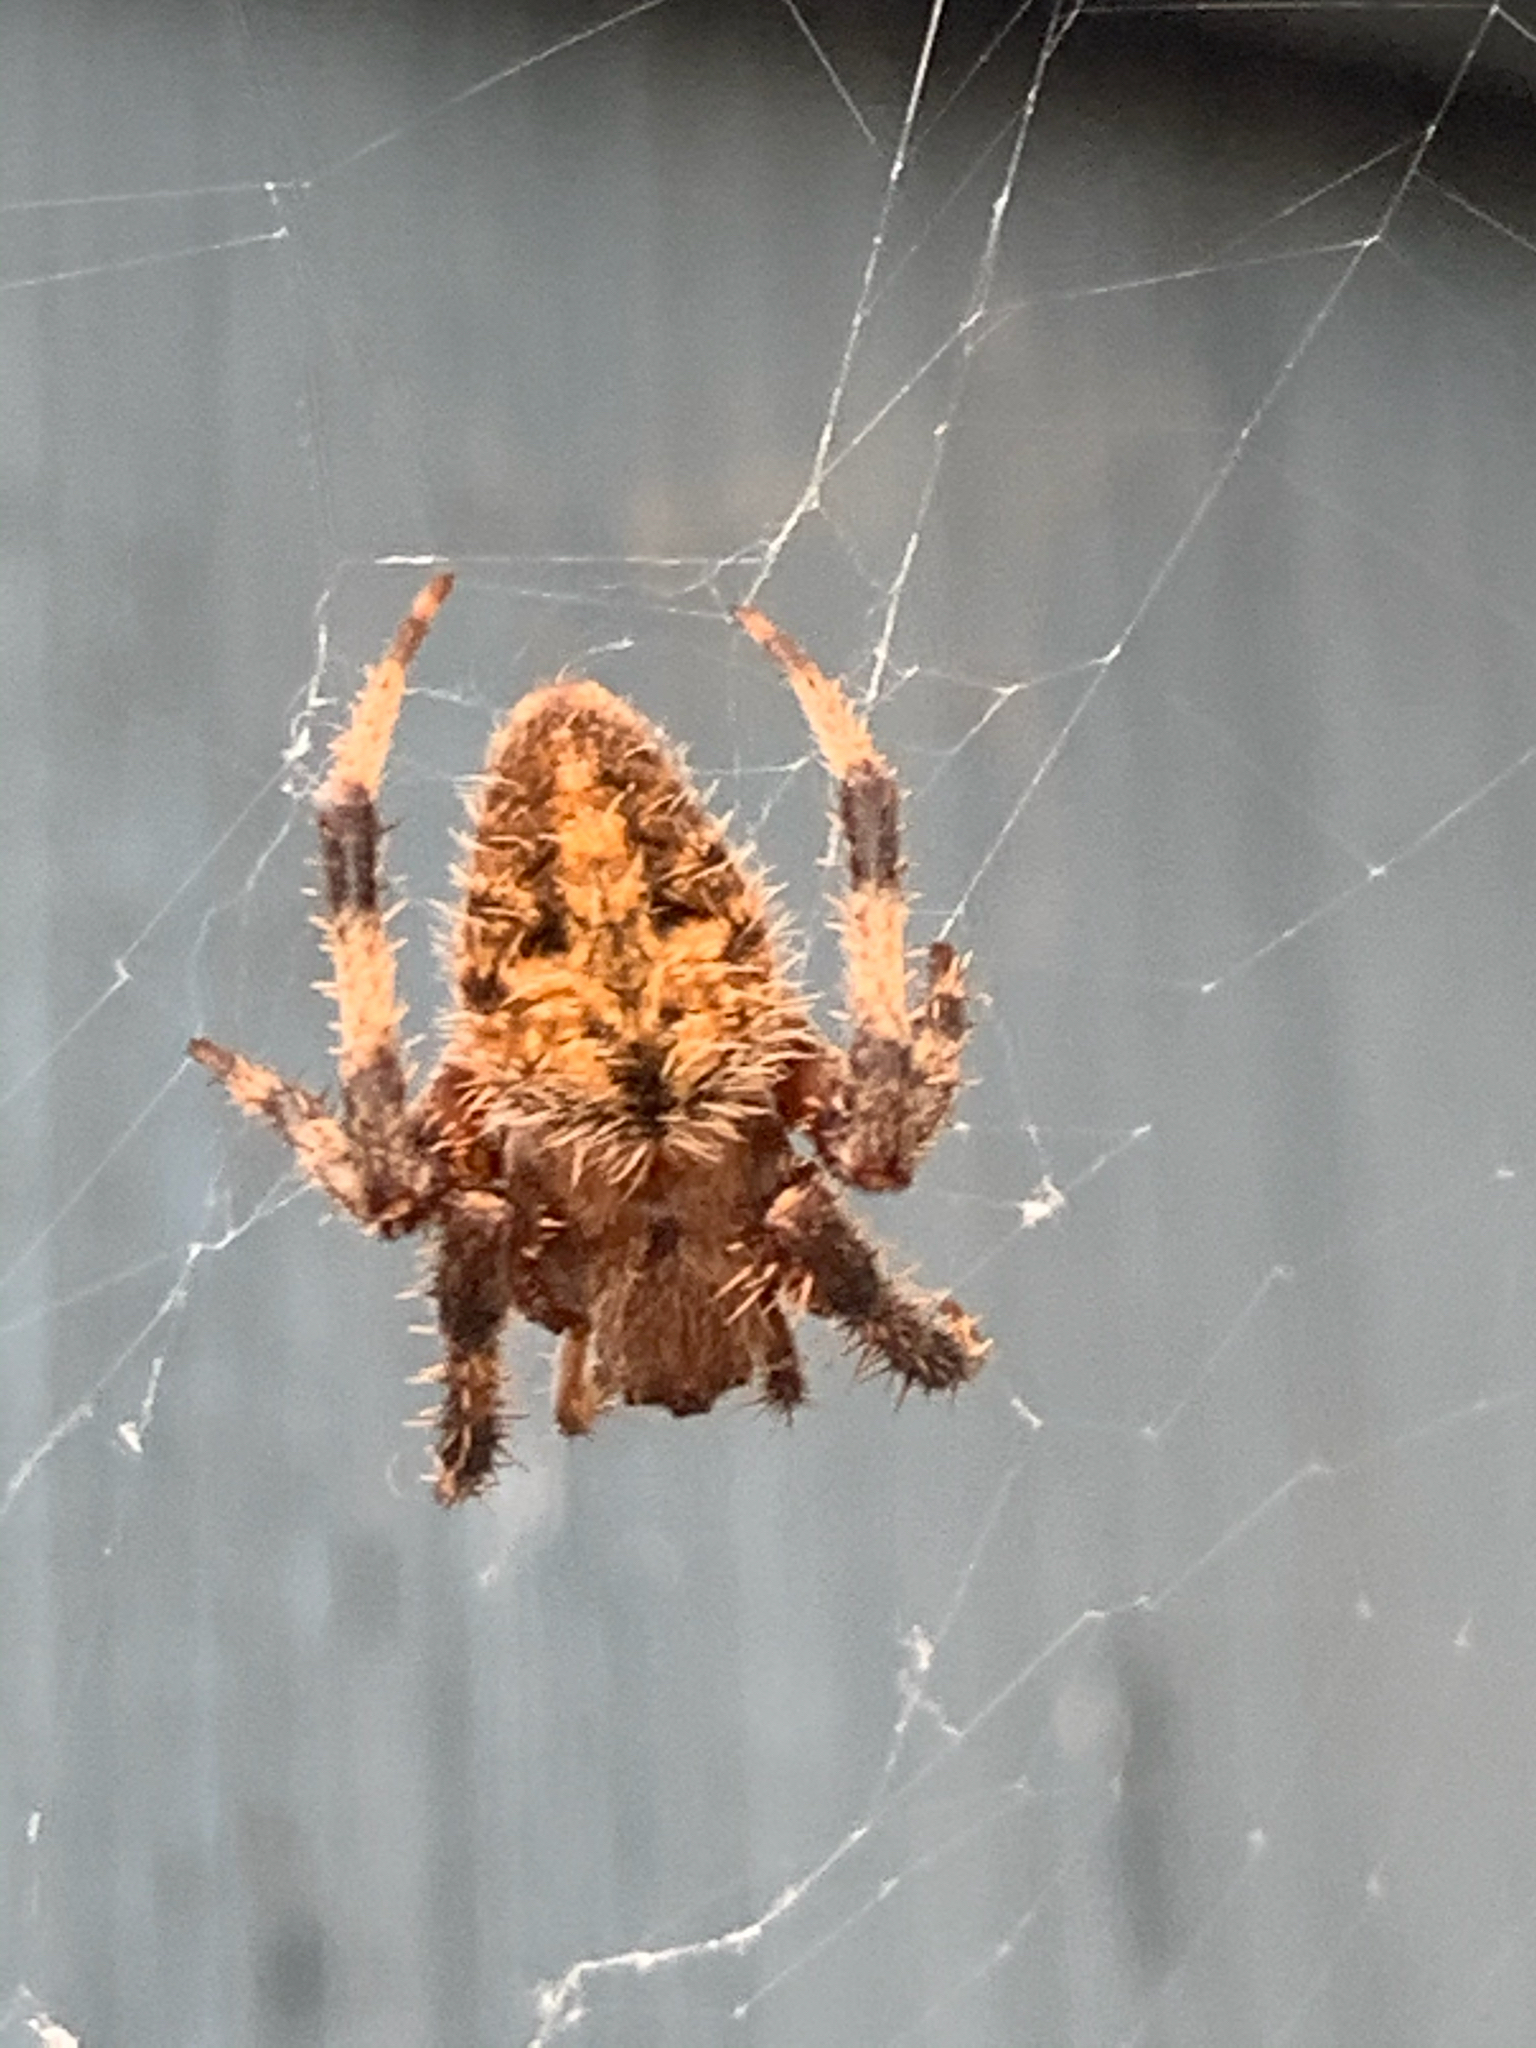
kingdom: Animalia
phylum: Arthropoda
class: Arachnida
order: Araneae
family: Araneidae
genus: Neoscona
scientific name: Neoscona crucifera
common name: Spotted orbweaver
